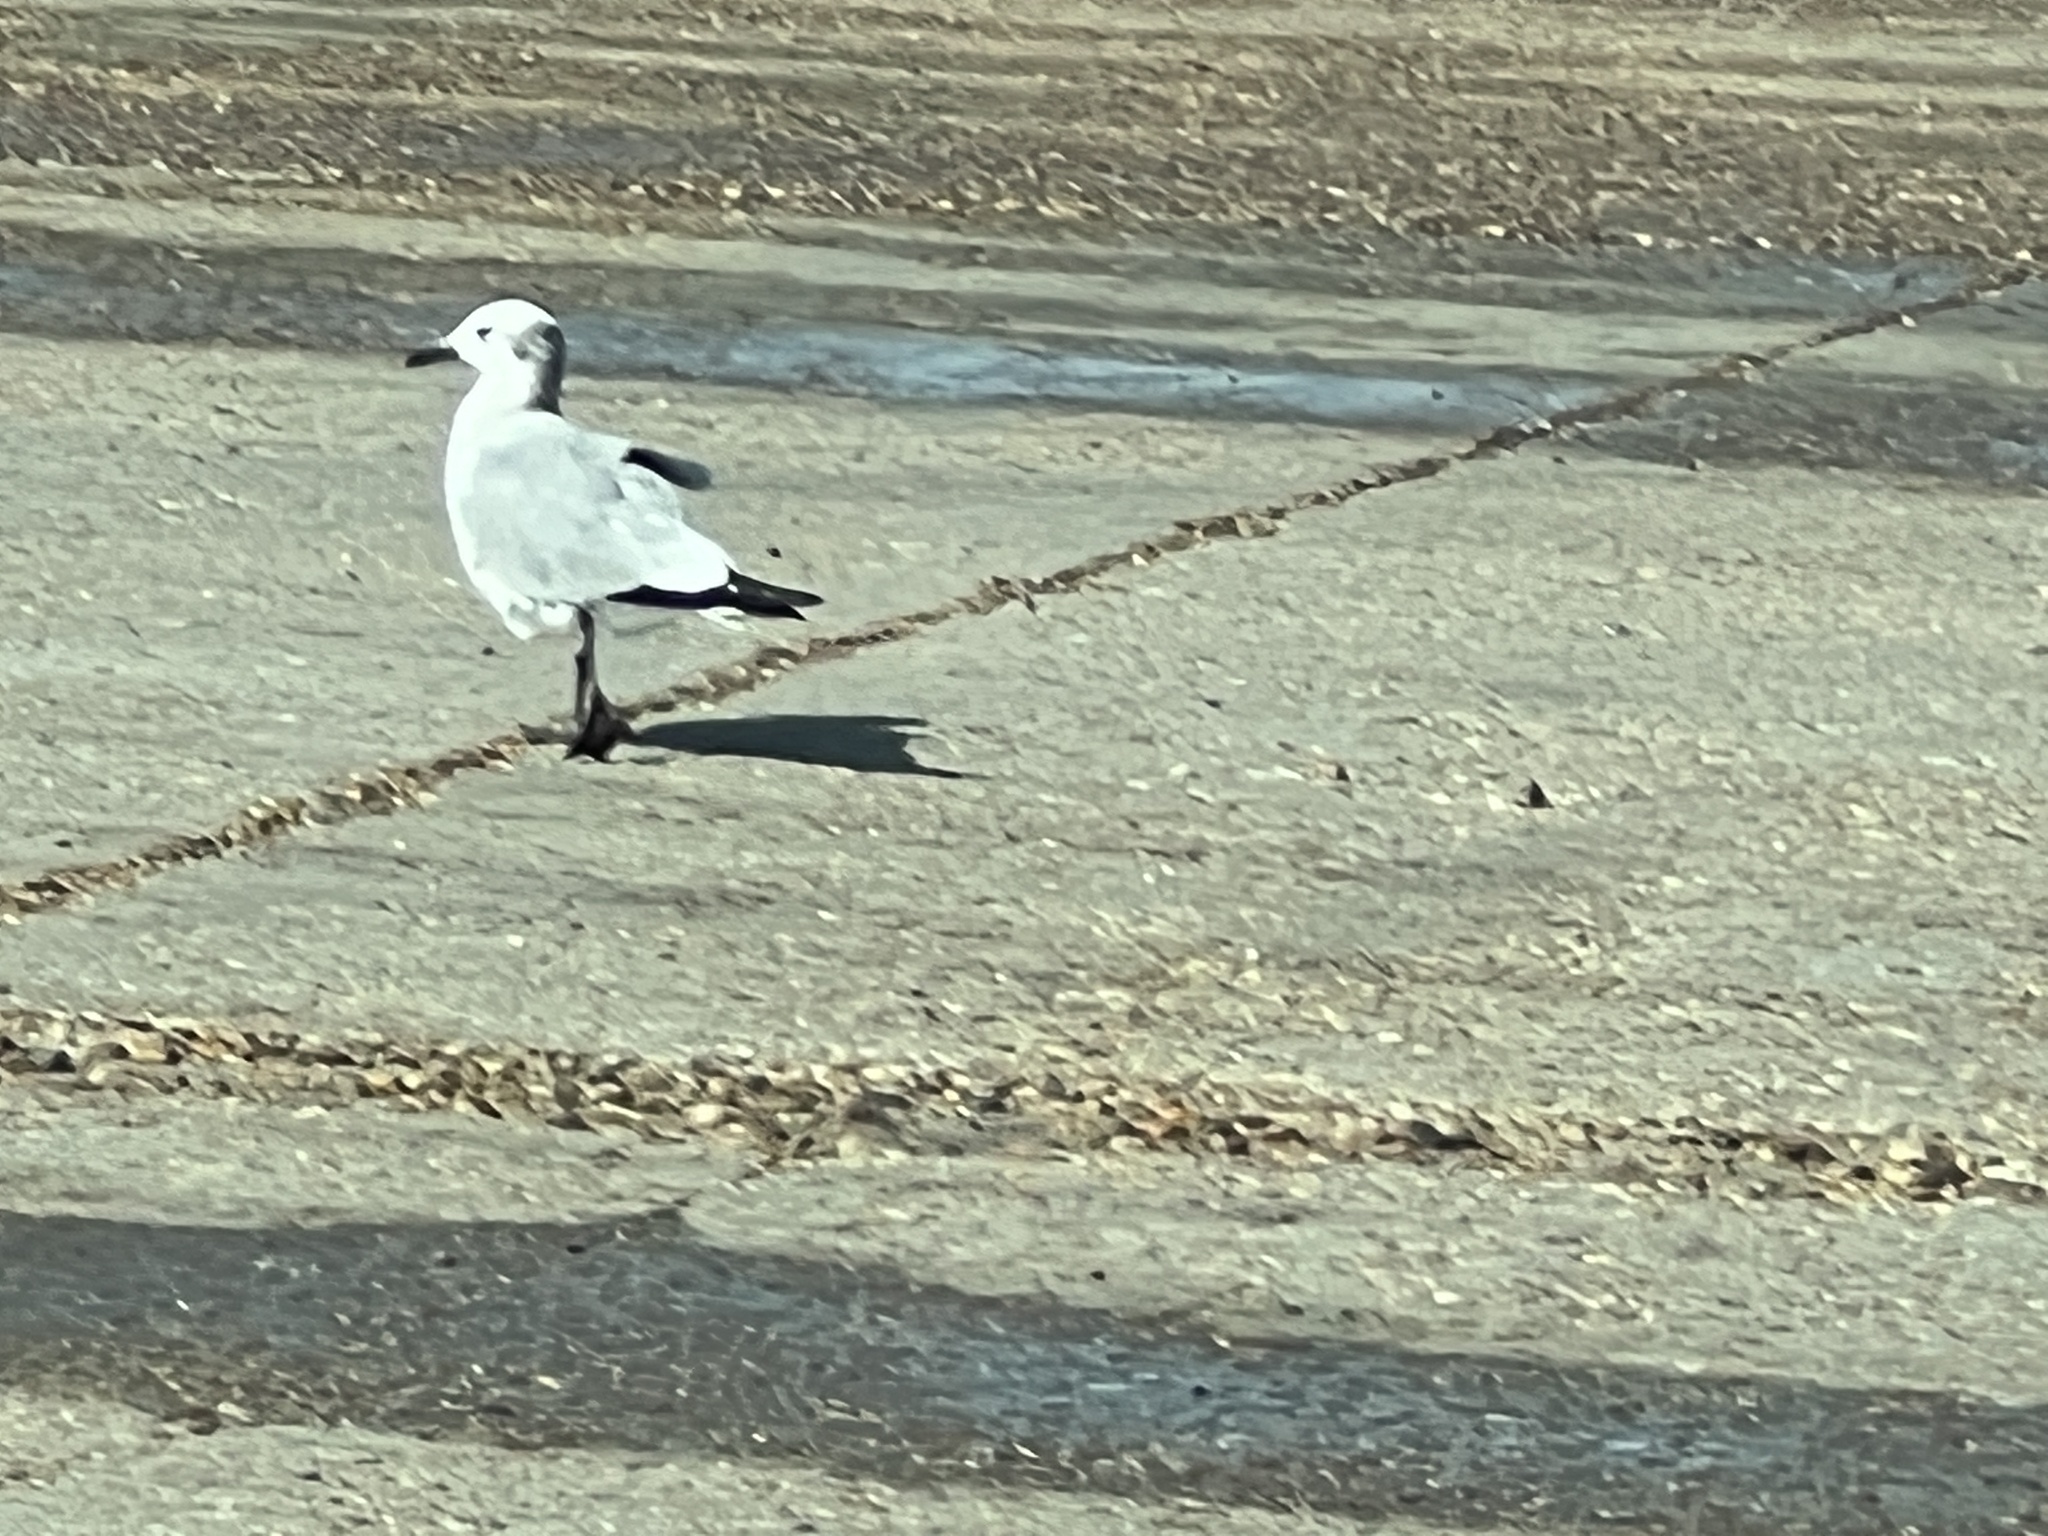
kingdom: Animalia
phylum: Chordata
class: Aves
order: Charadriiformes
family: Laridae
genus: Leucophaeus
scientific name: Leucophaeus atricilla
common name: Laughing gull
